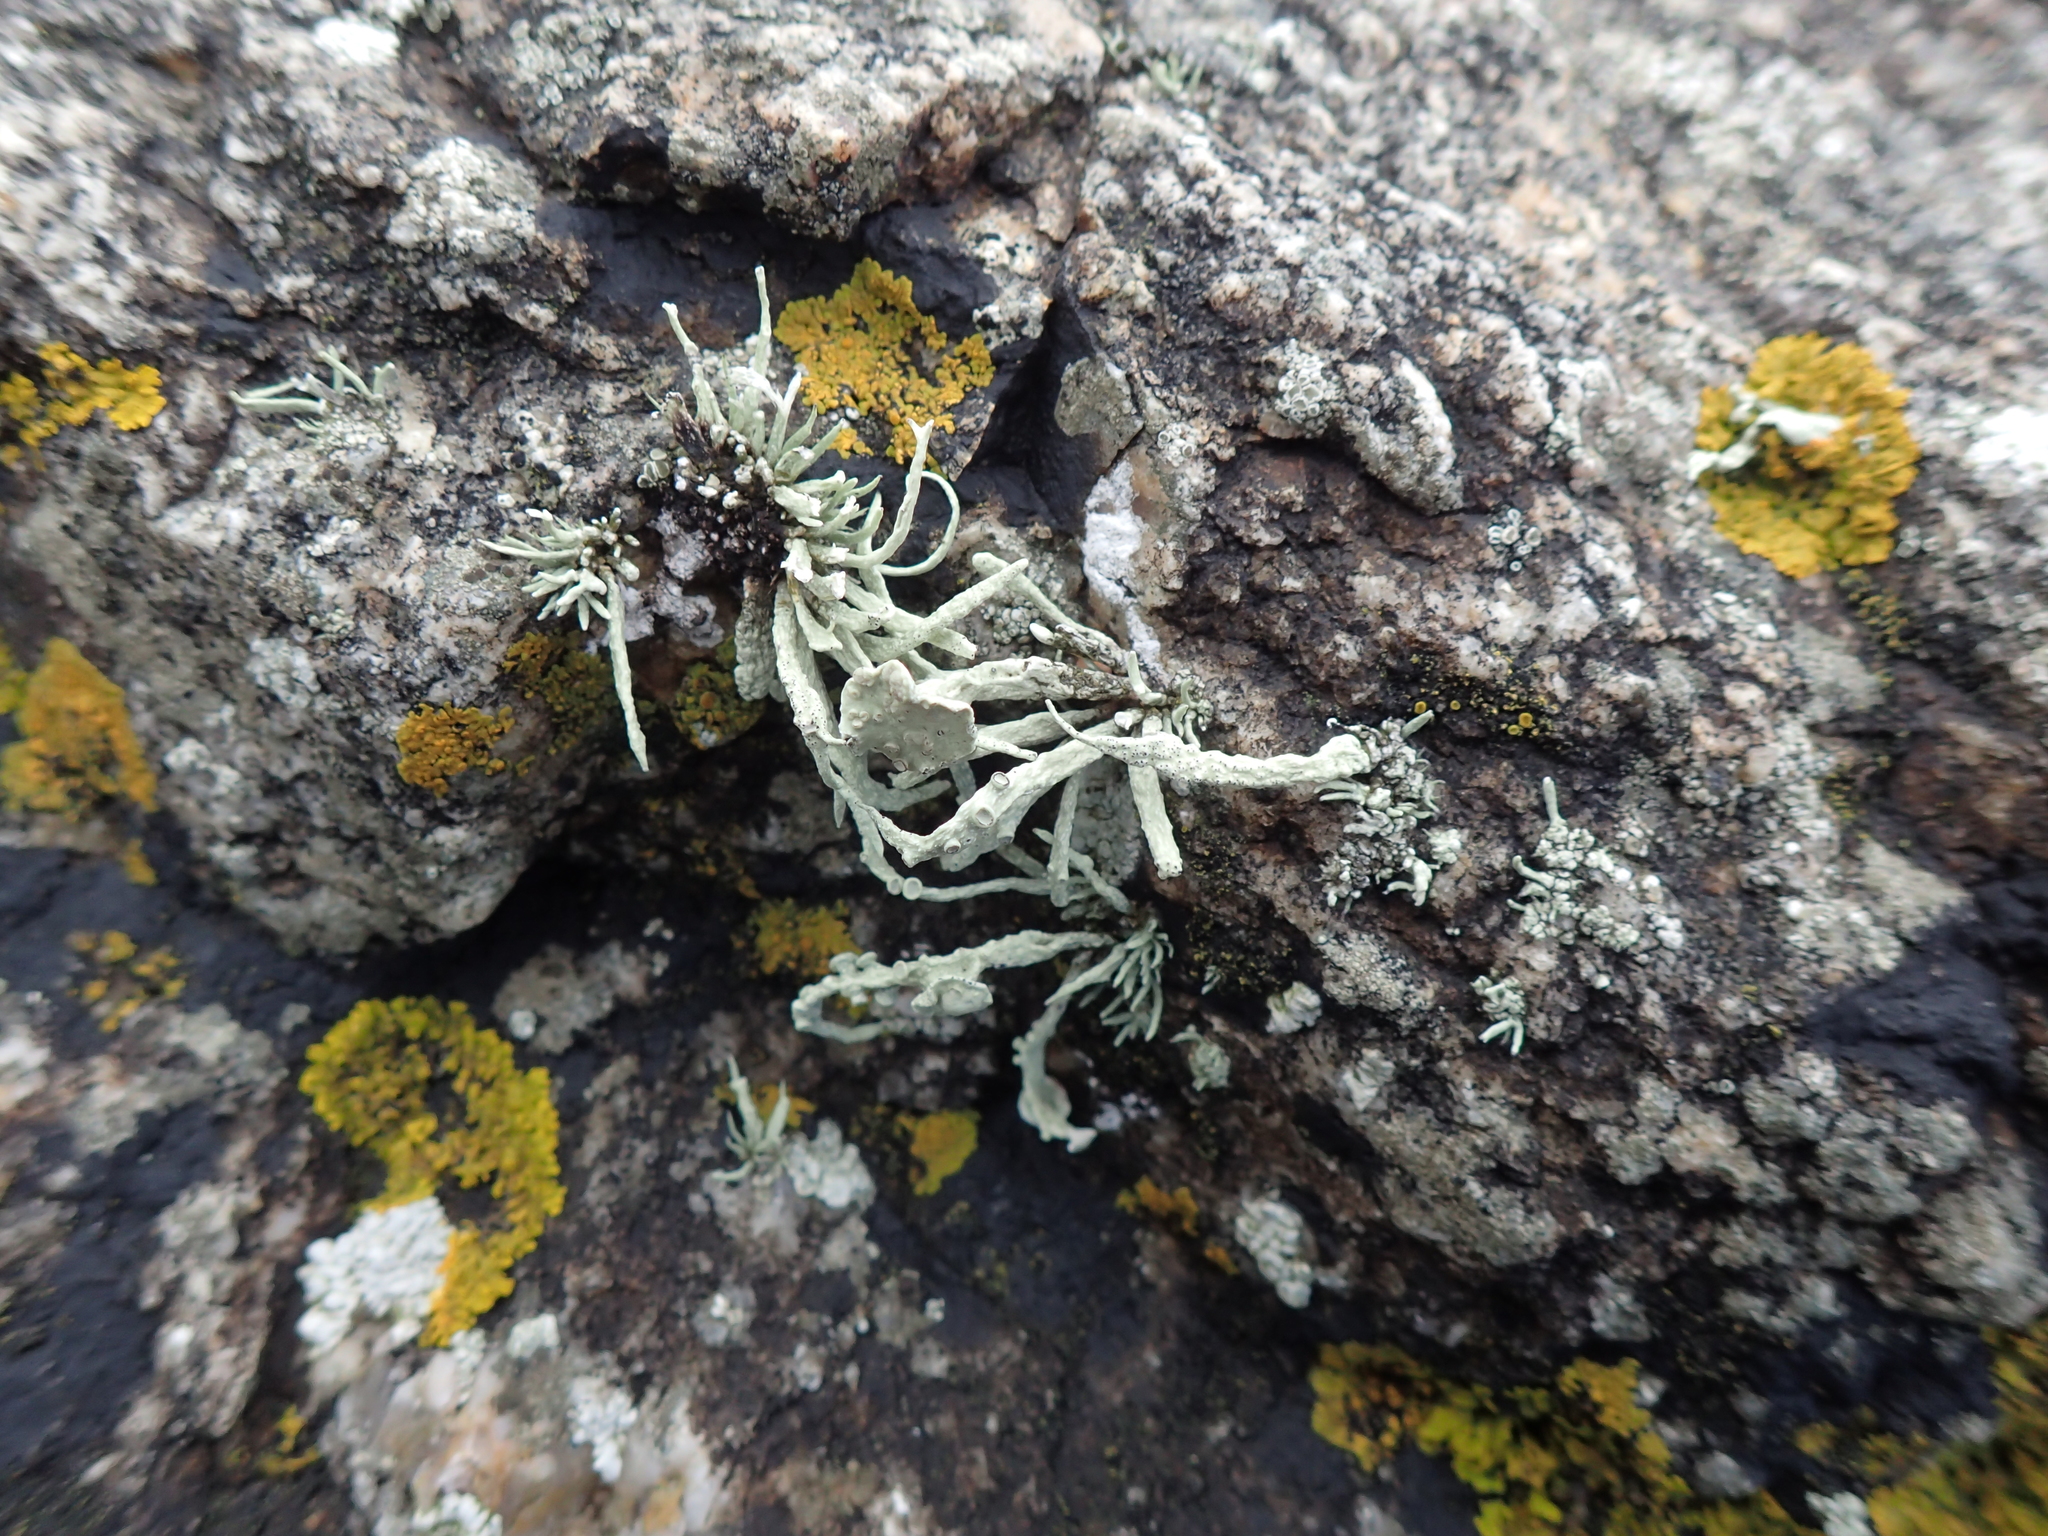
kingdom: Fungi
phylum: Ascomycota
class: Lecanoromycetes
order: Lecanorales
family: Ramalinaceae
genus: Ramalina
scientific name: Ramalina siliquosa
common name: Sea ivory
